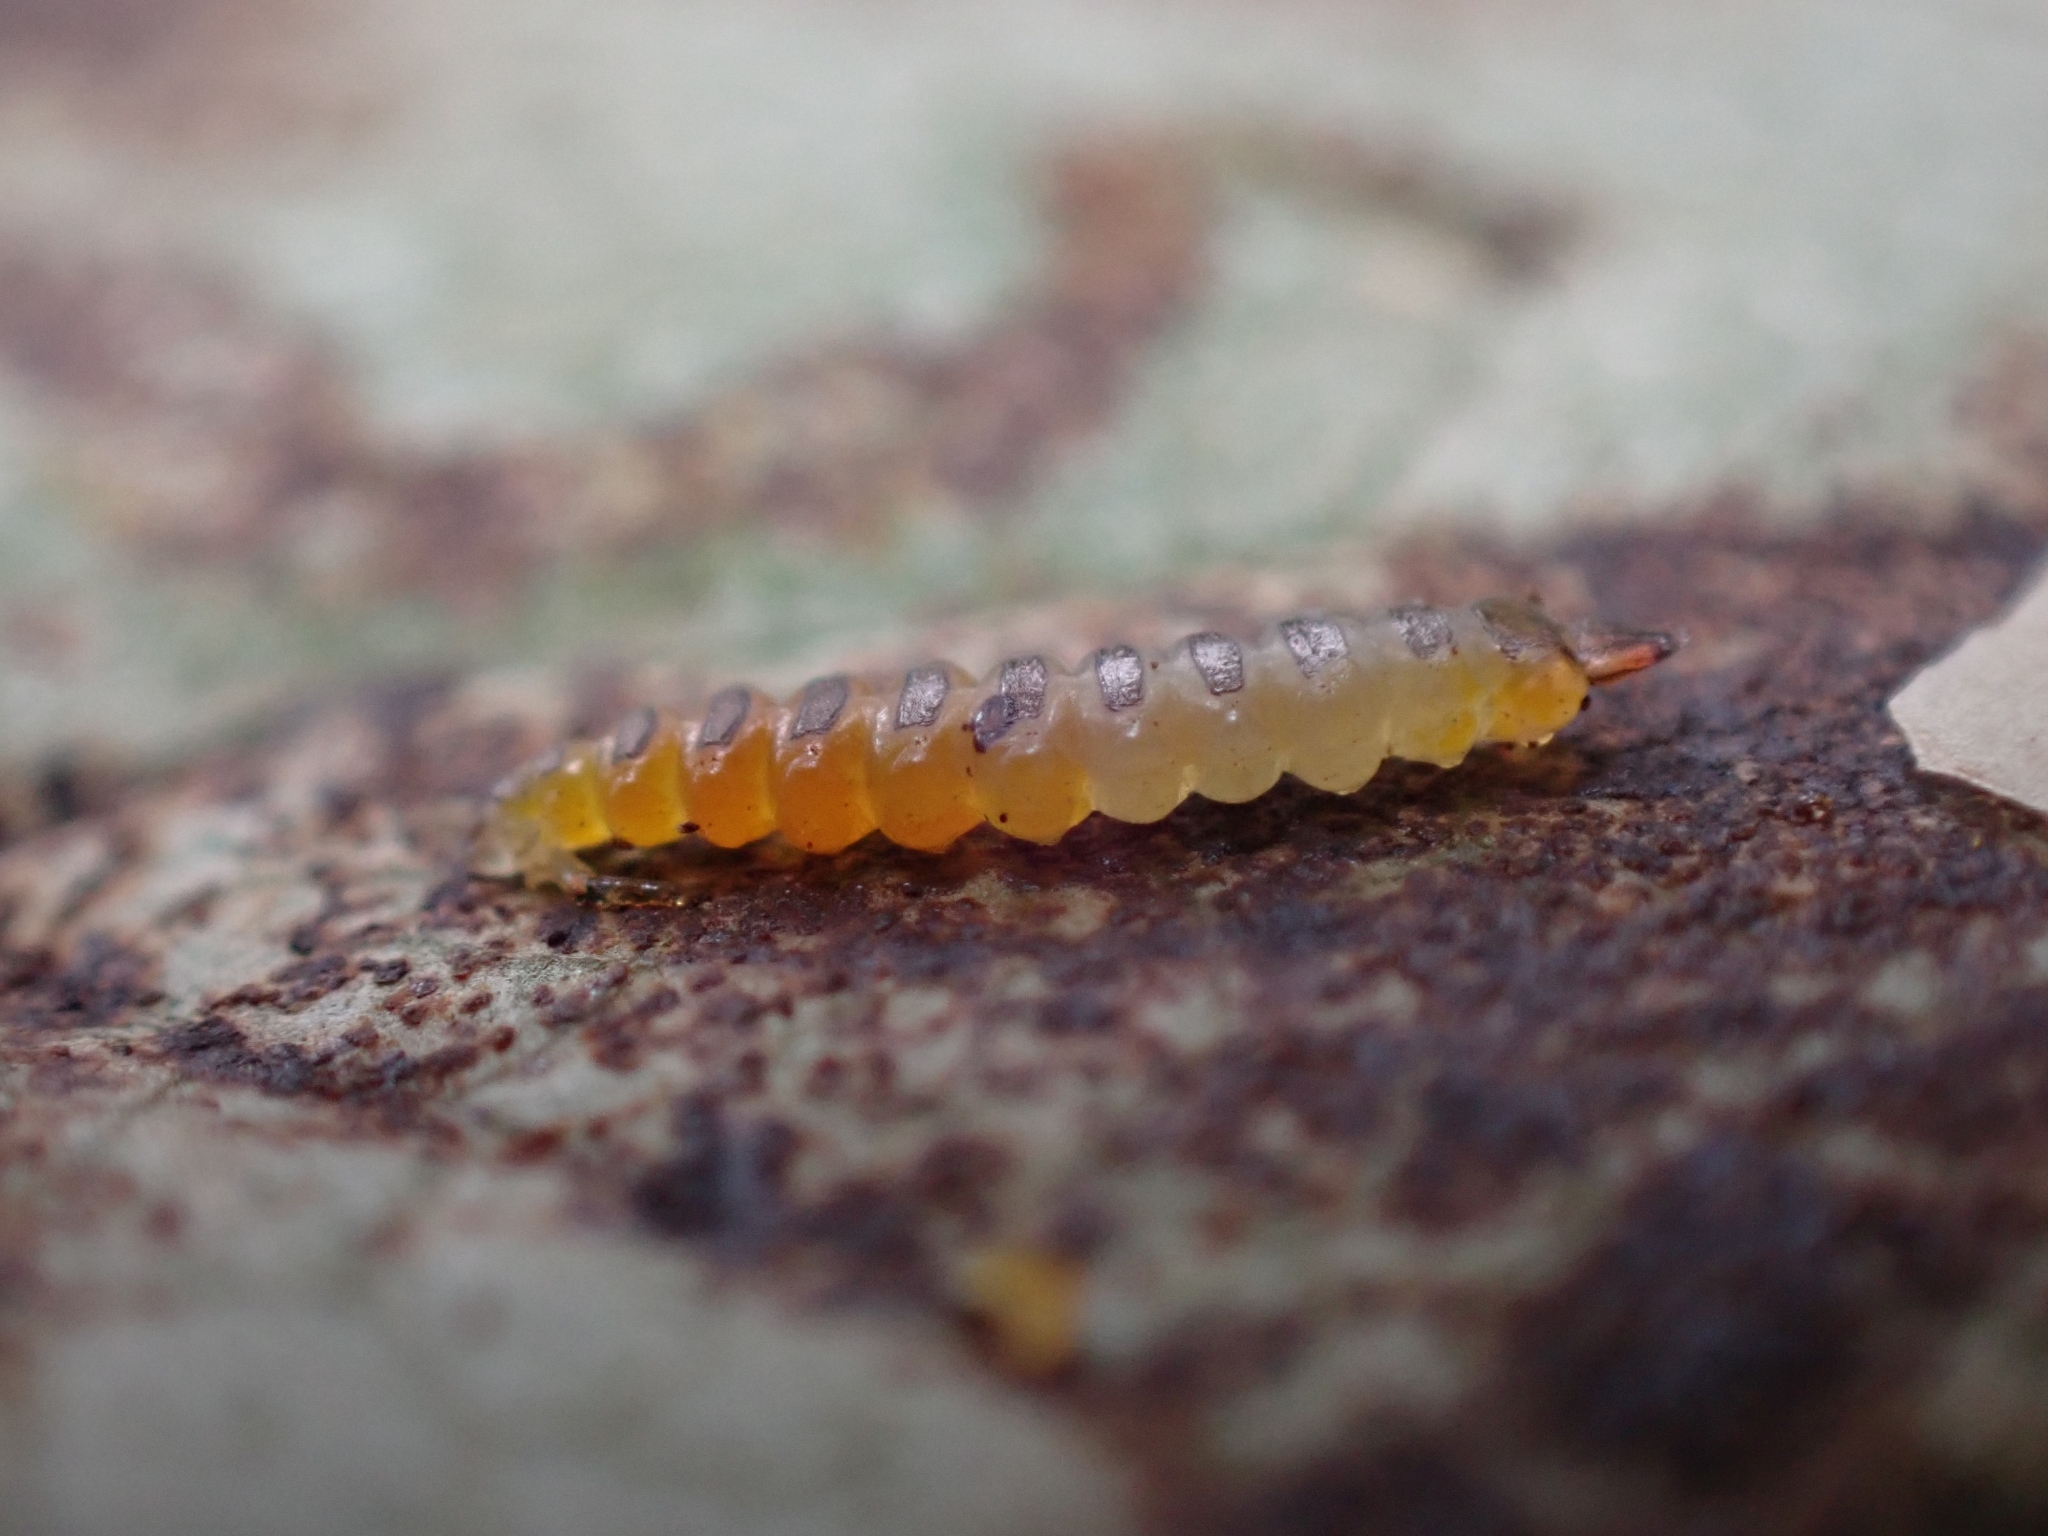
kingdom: Animalia
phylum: Arthropoda
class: Insecta
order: Lepidoptera
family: Gracillariidae
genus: Cameraria
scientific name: Cameraria gaultheriella
